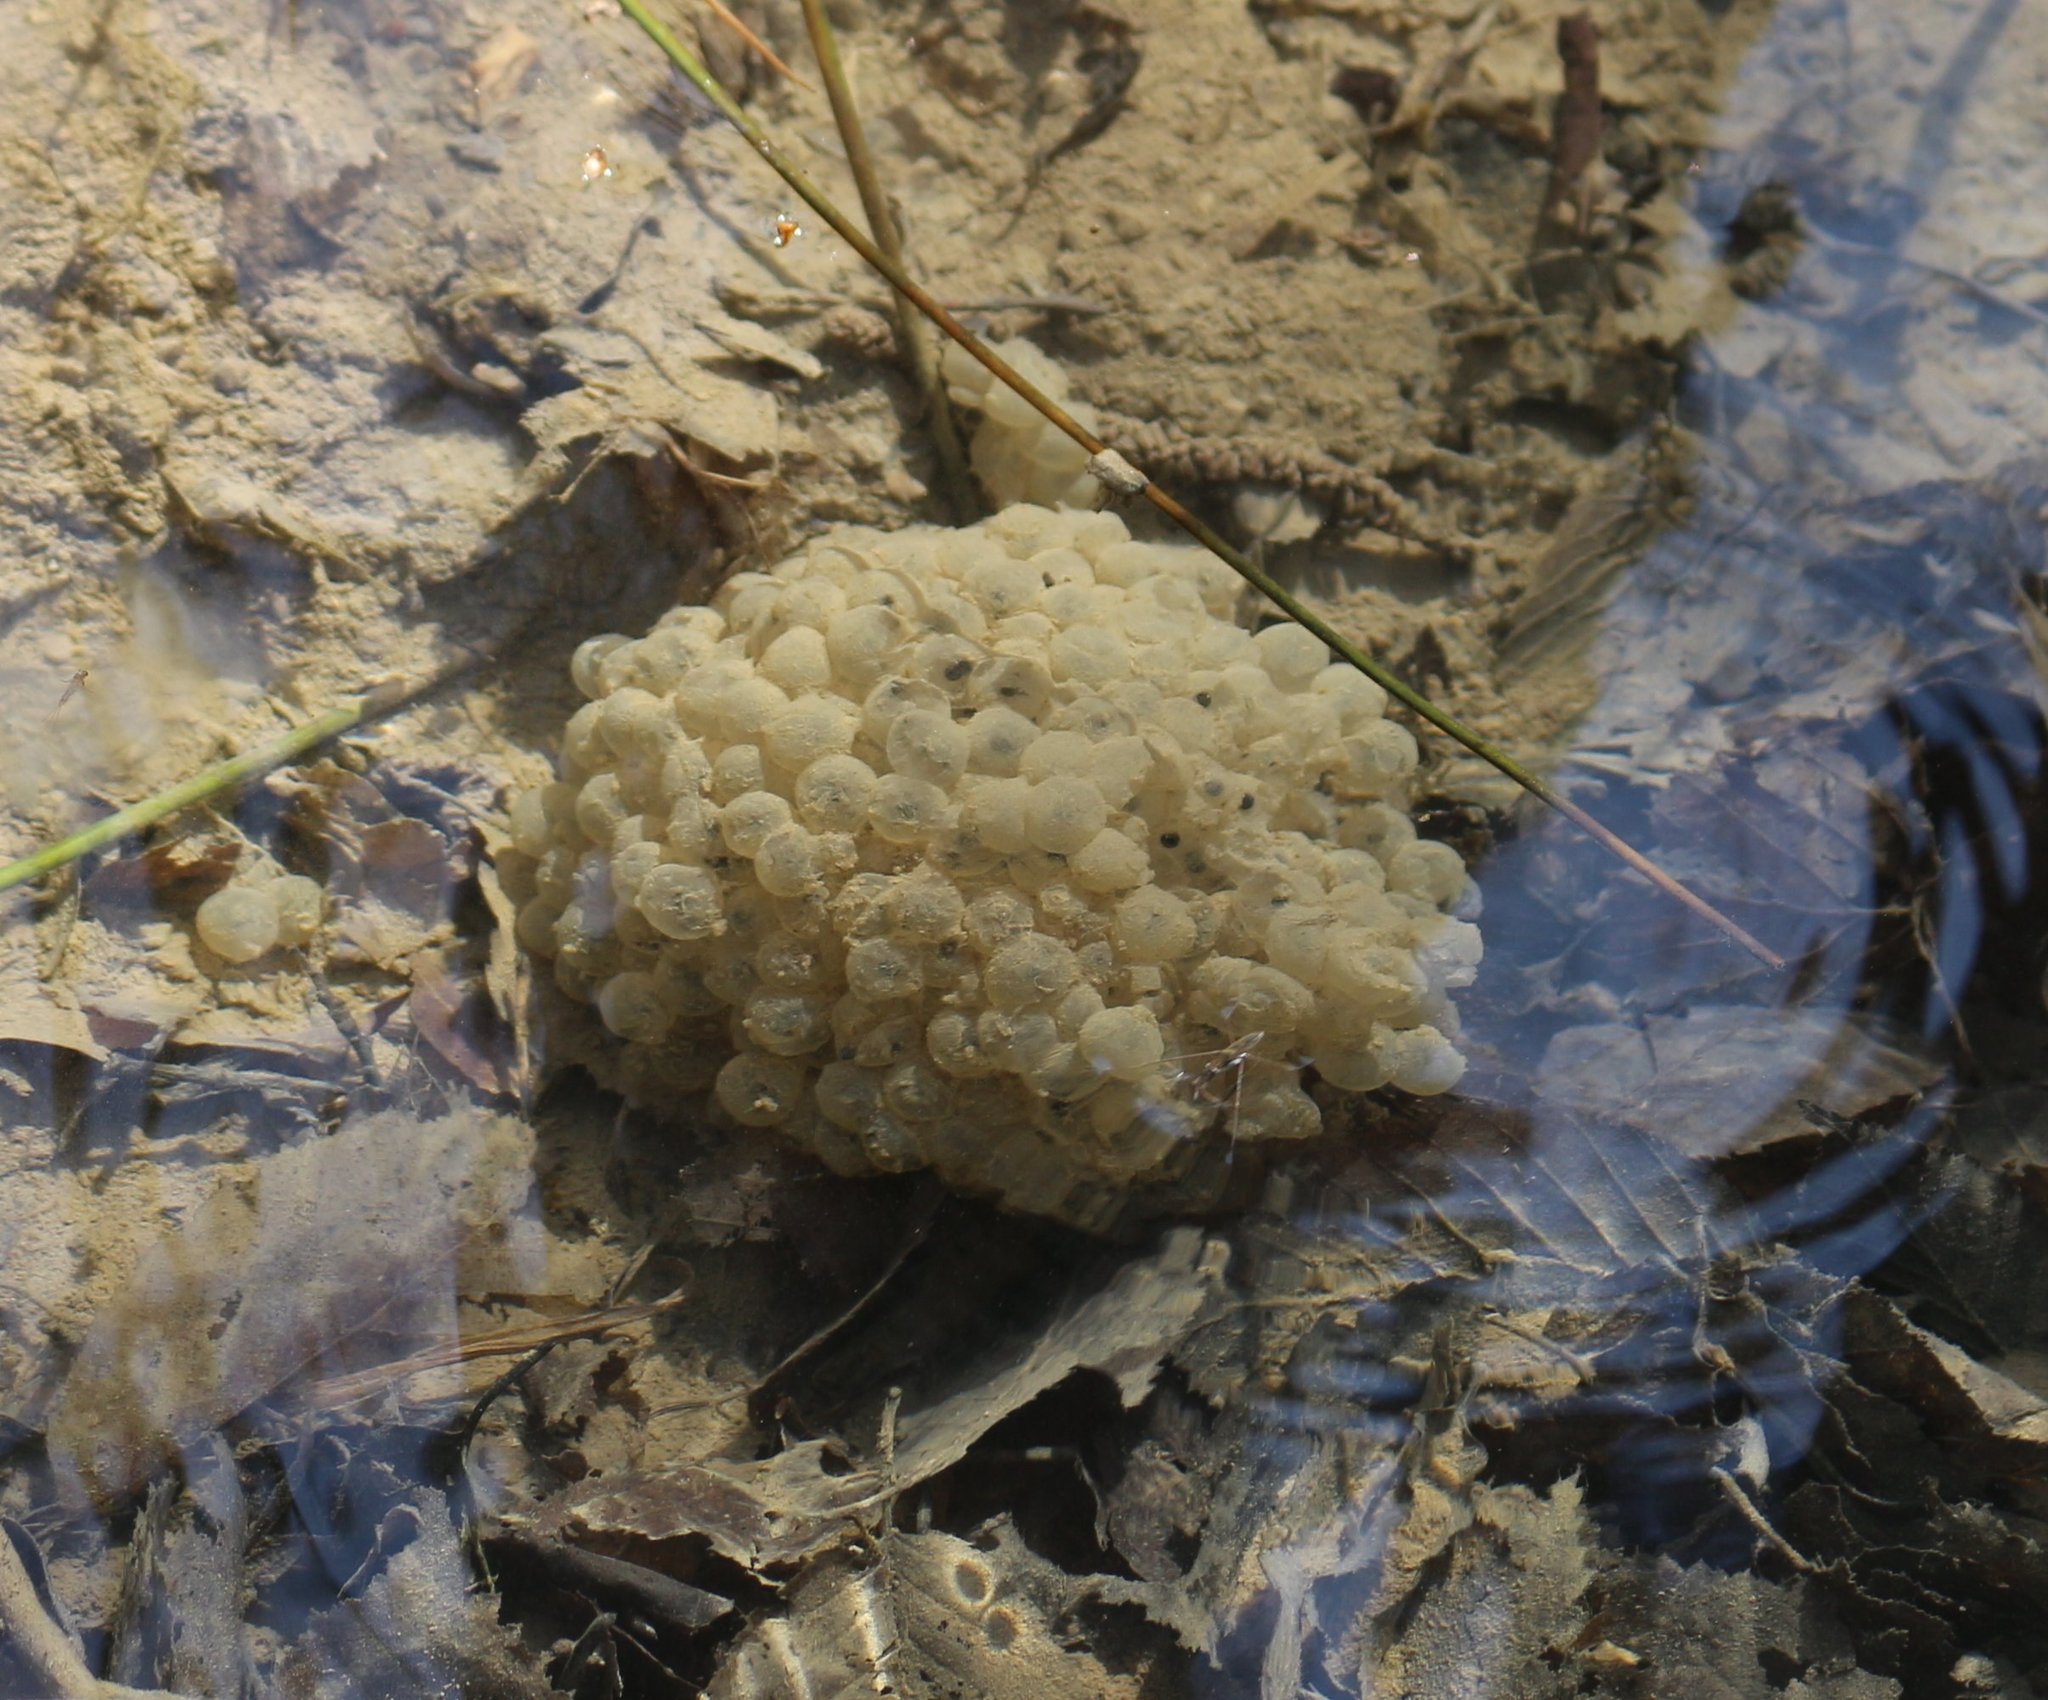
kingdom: Animalia
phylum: Chordata
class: Amphibia
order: Anura
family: Ranidae
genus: Rana
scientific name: Rana macrocnemis
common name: Banded frog
